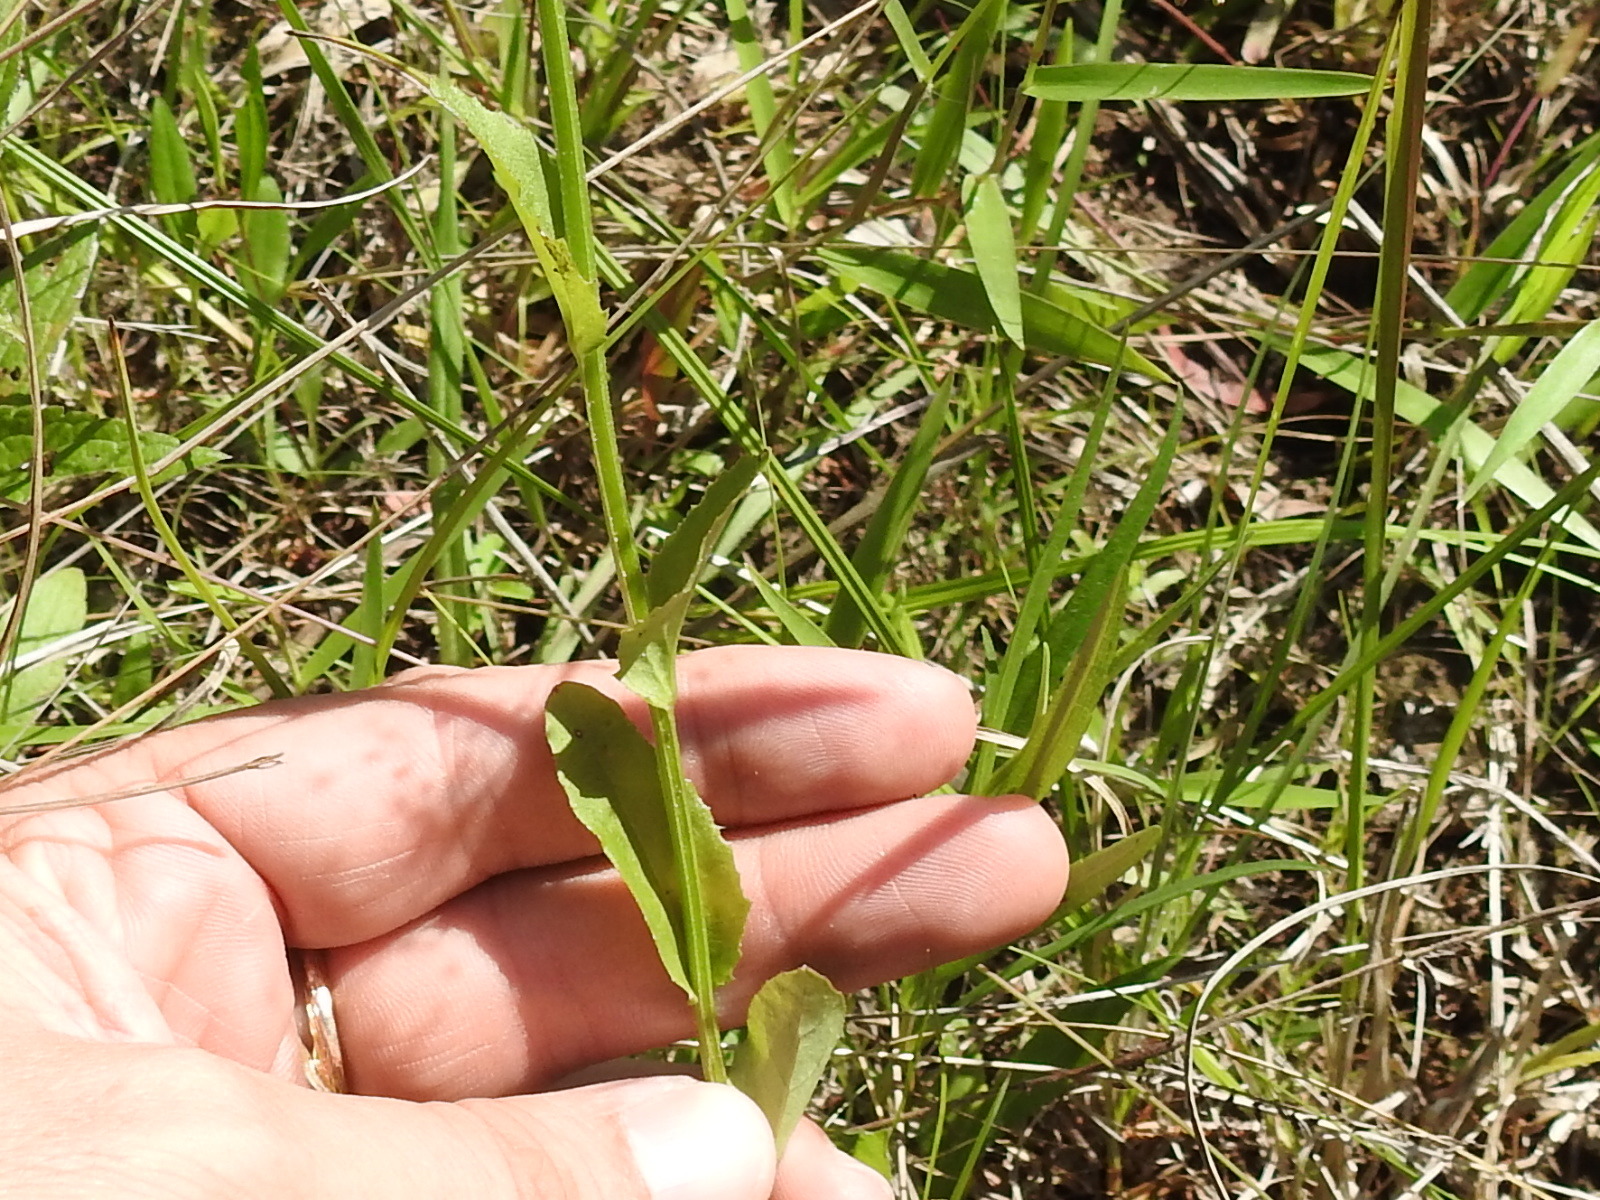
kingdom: Plantae
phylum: Tracheophyta
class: Magnoliopsida
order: Asterales
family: Campanulaceae
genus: Lobelia
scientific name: Lobelia appendiculata
